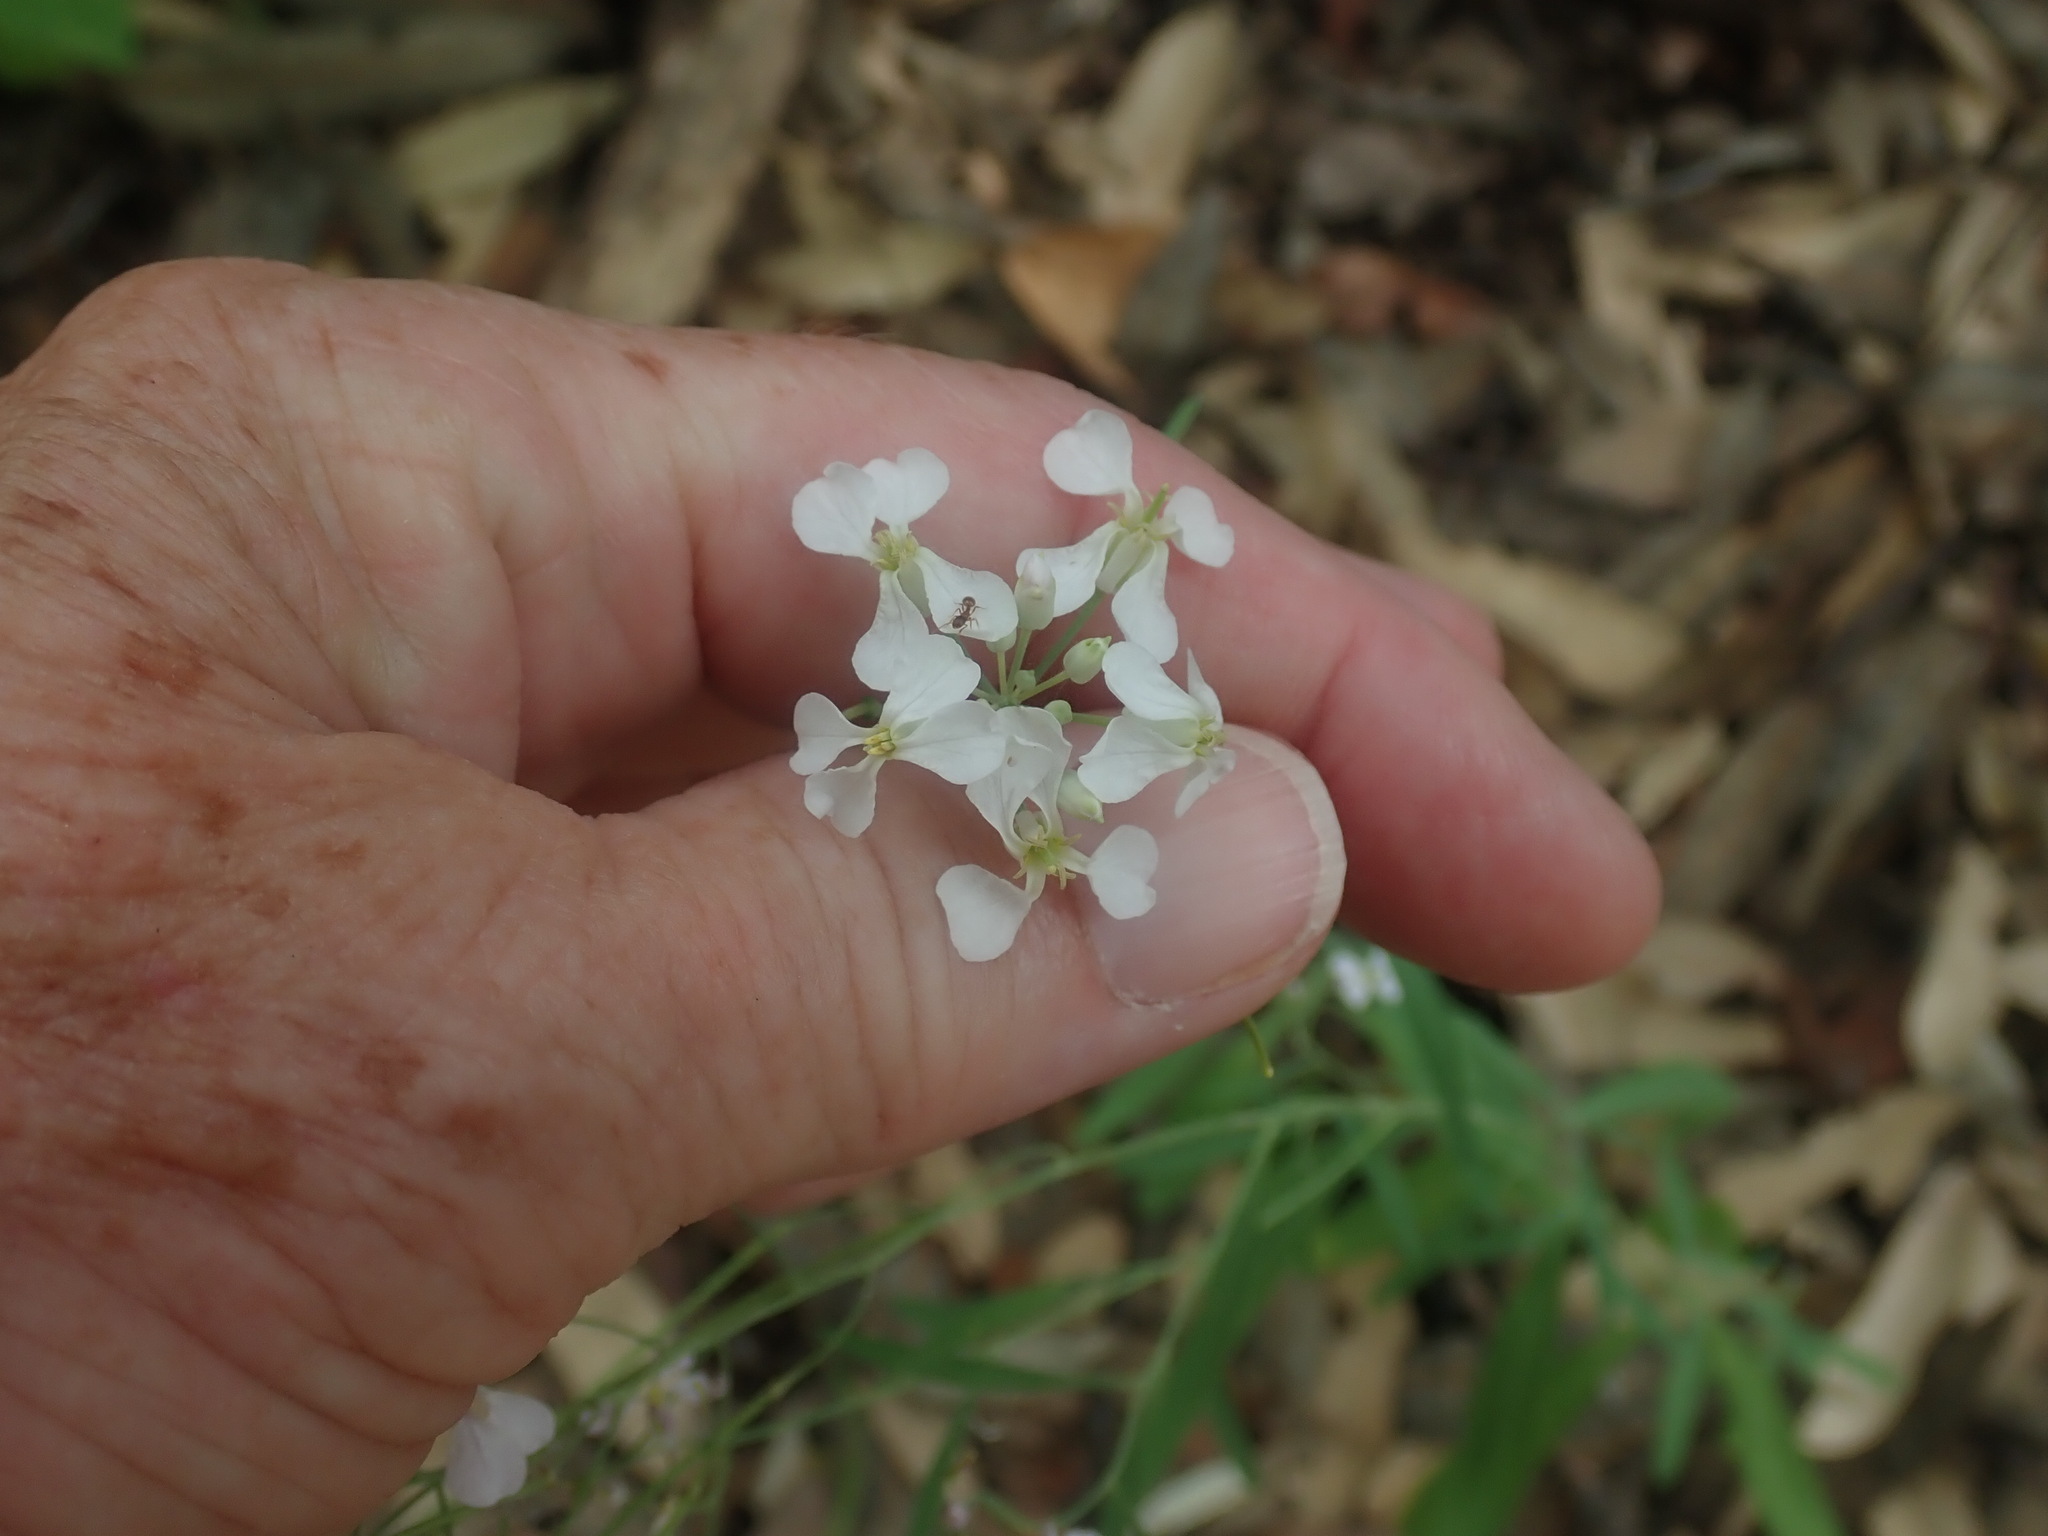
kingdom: Plantae
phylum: Tracheophyta
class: Magnoliopsida
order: Brassicales
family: Brassicaceae
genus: Hesperidanthus
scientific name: Hesperidanthus linearifolius
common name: Slim-leaf plains mustard
